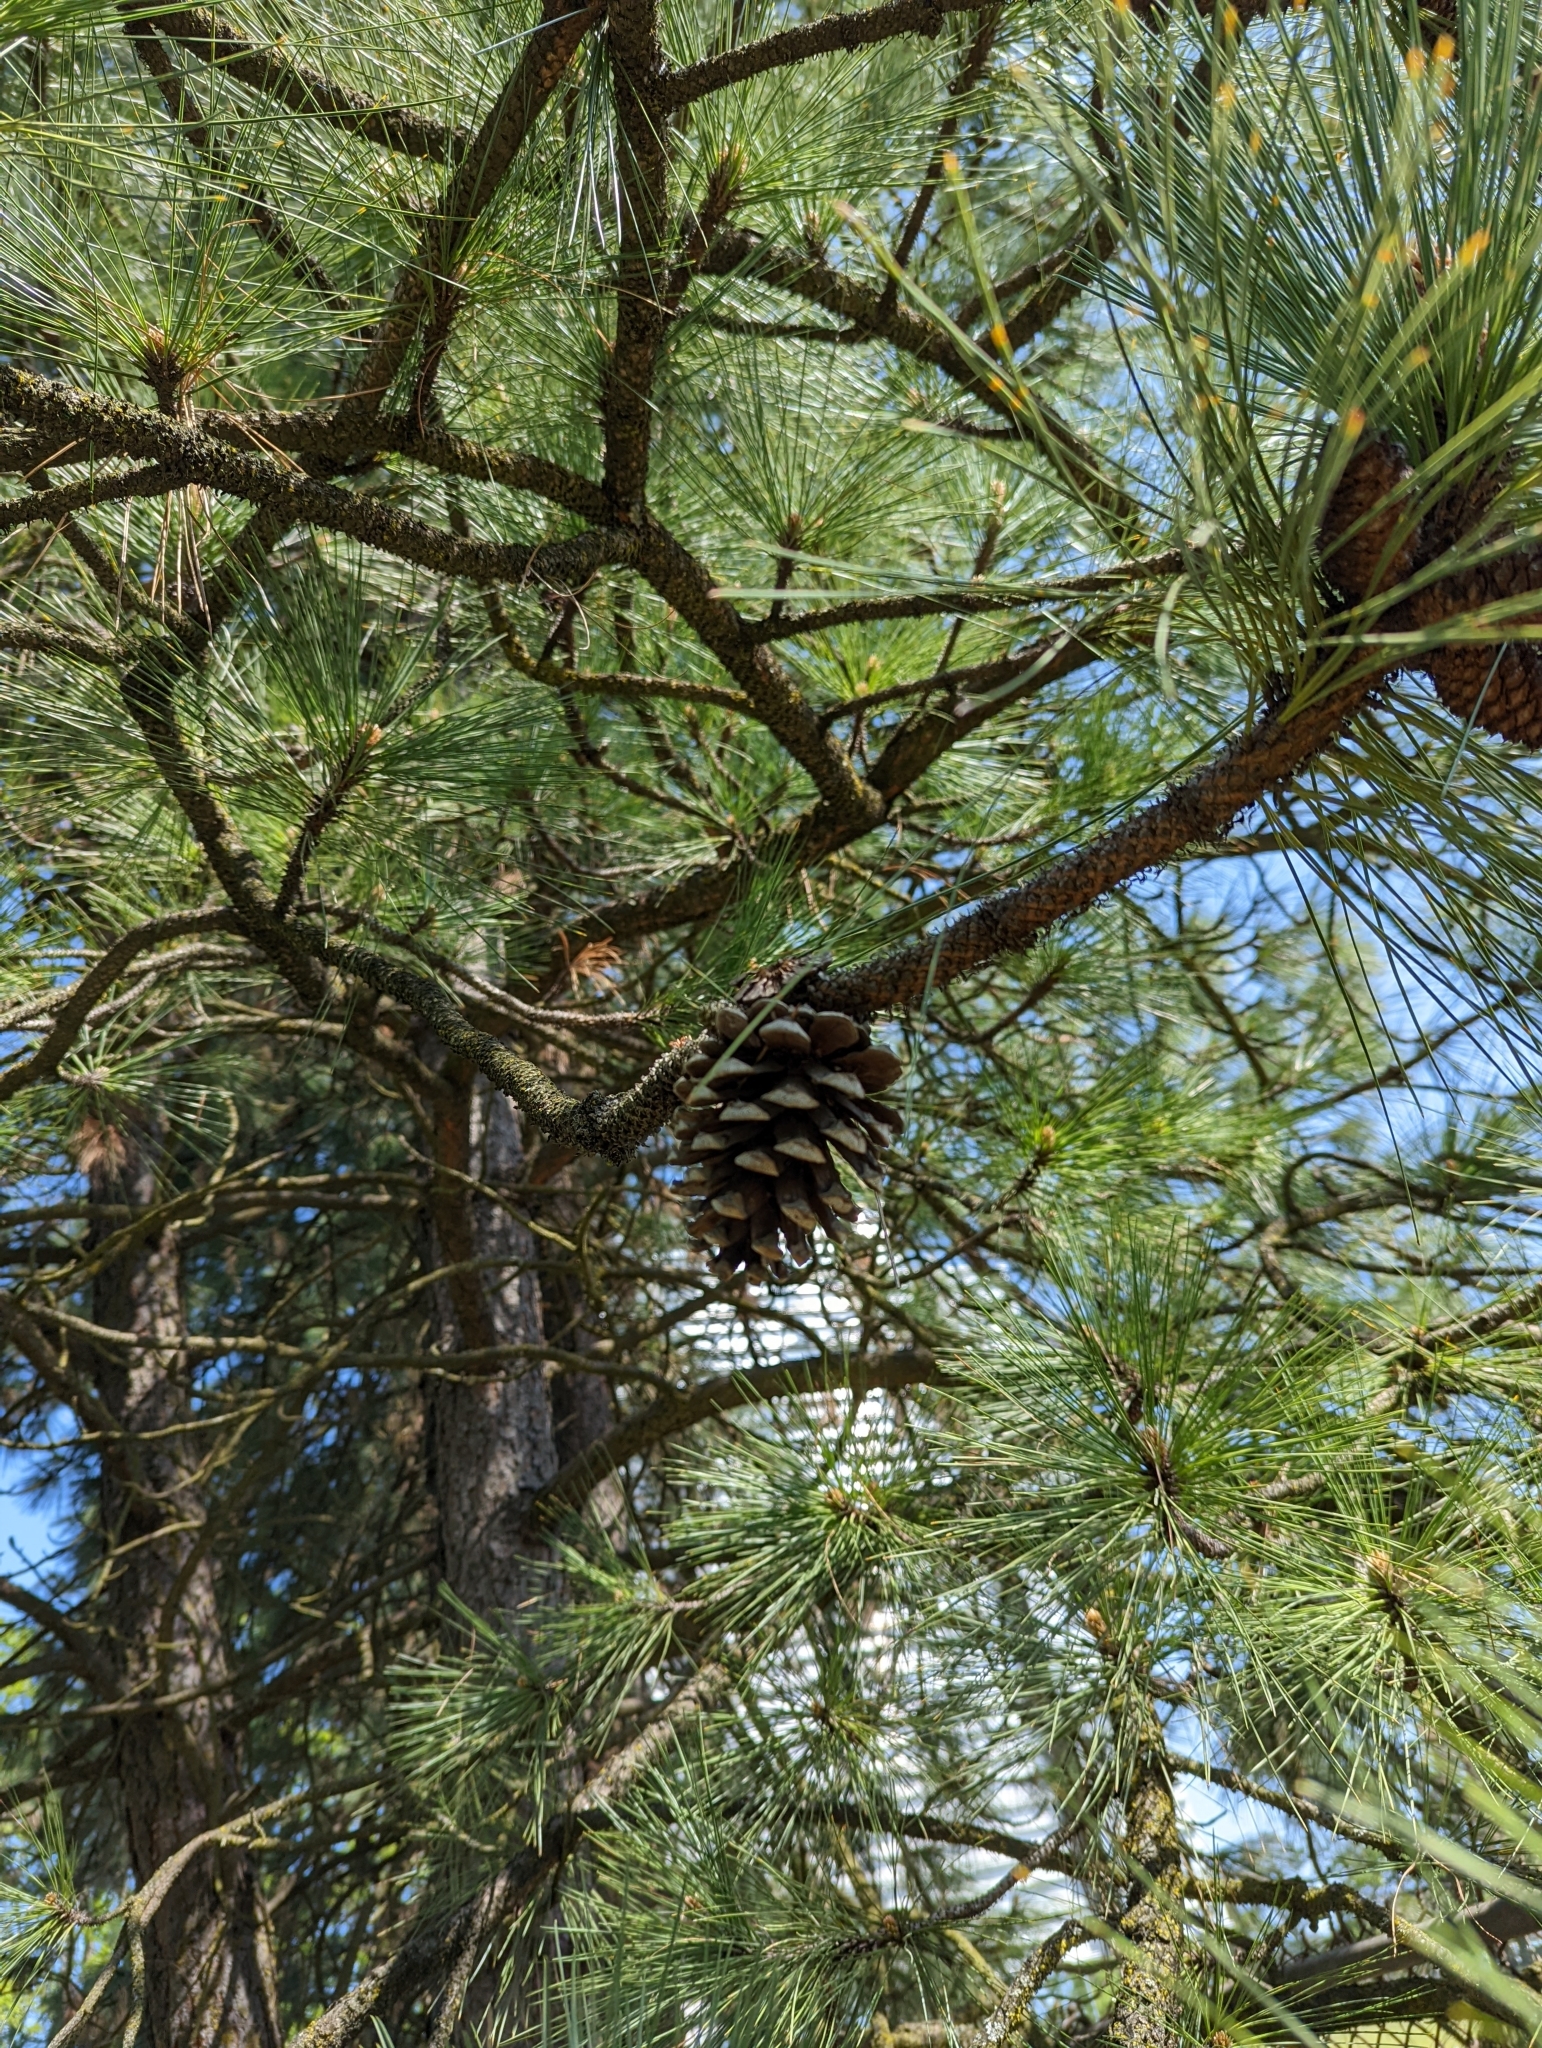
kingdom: Plantae
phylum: Tracheophyta
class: Pinopsida
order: Pinales
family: Pinaceae
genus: Pinus
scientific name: Pinus ponderosa
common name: Western yellow-pine
